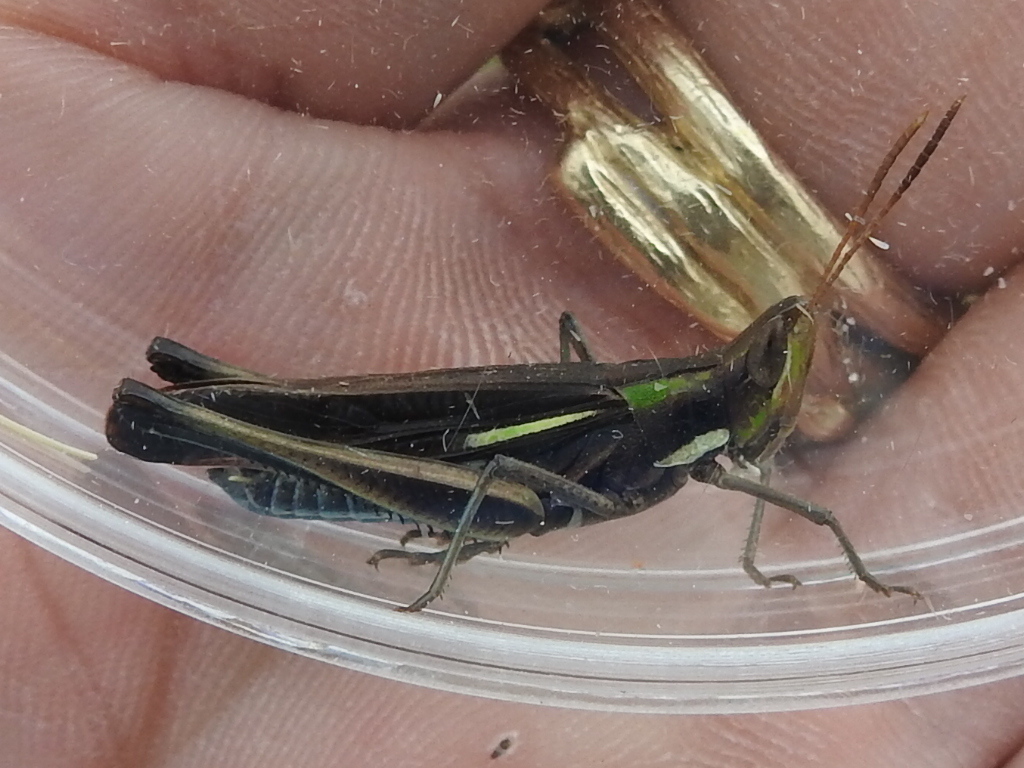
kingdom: Animalia
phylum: Arthropoda
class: Insecta
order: Orthoptera
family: Acrididae
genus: Syrbula
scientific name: Syrbula montezuma
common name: Montezuma's grasshopper
